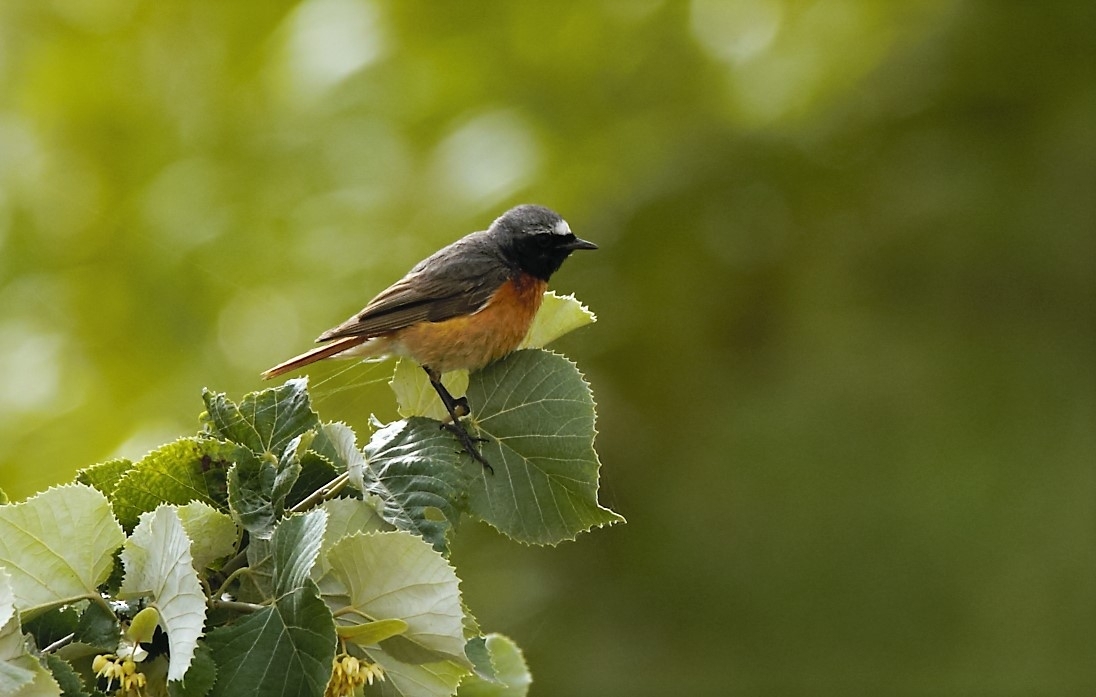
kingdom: Animalia
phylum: Chordata
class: Aves
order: Passeriformes
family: Muscicapidae
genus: Phoenicurus
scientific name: Phoenicurus phoenicurus
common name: Common redstart
